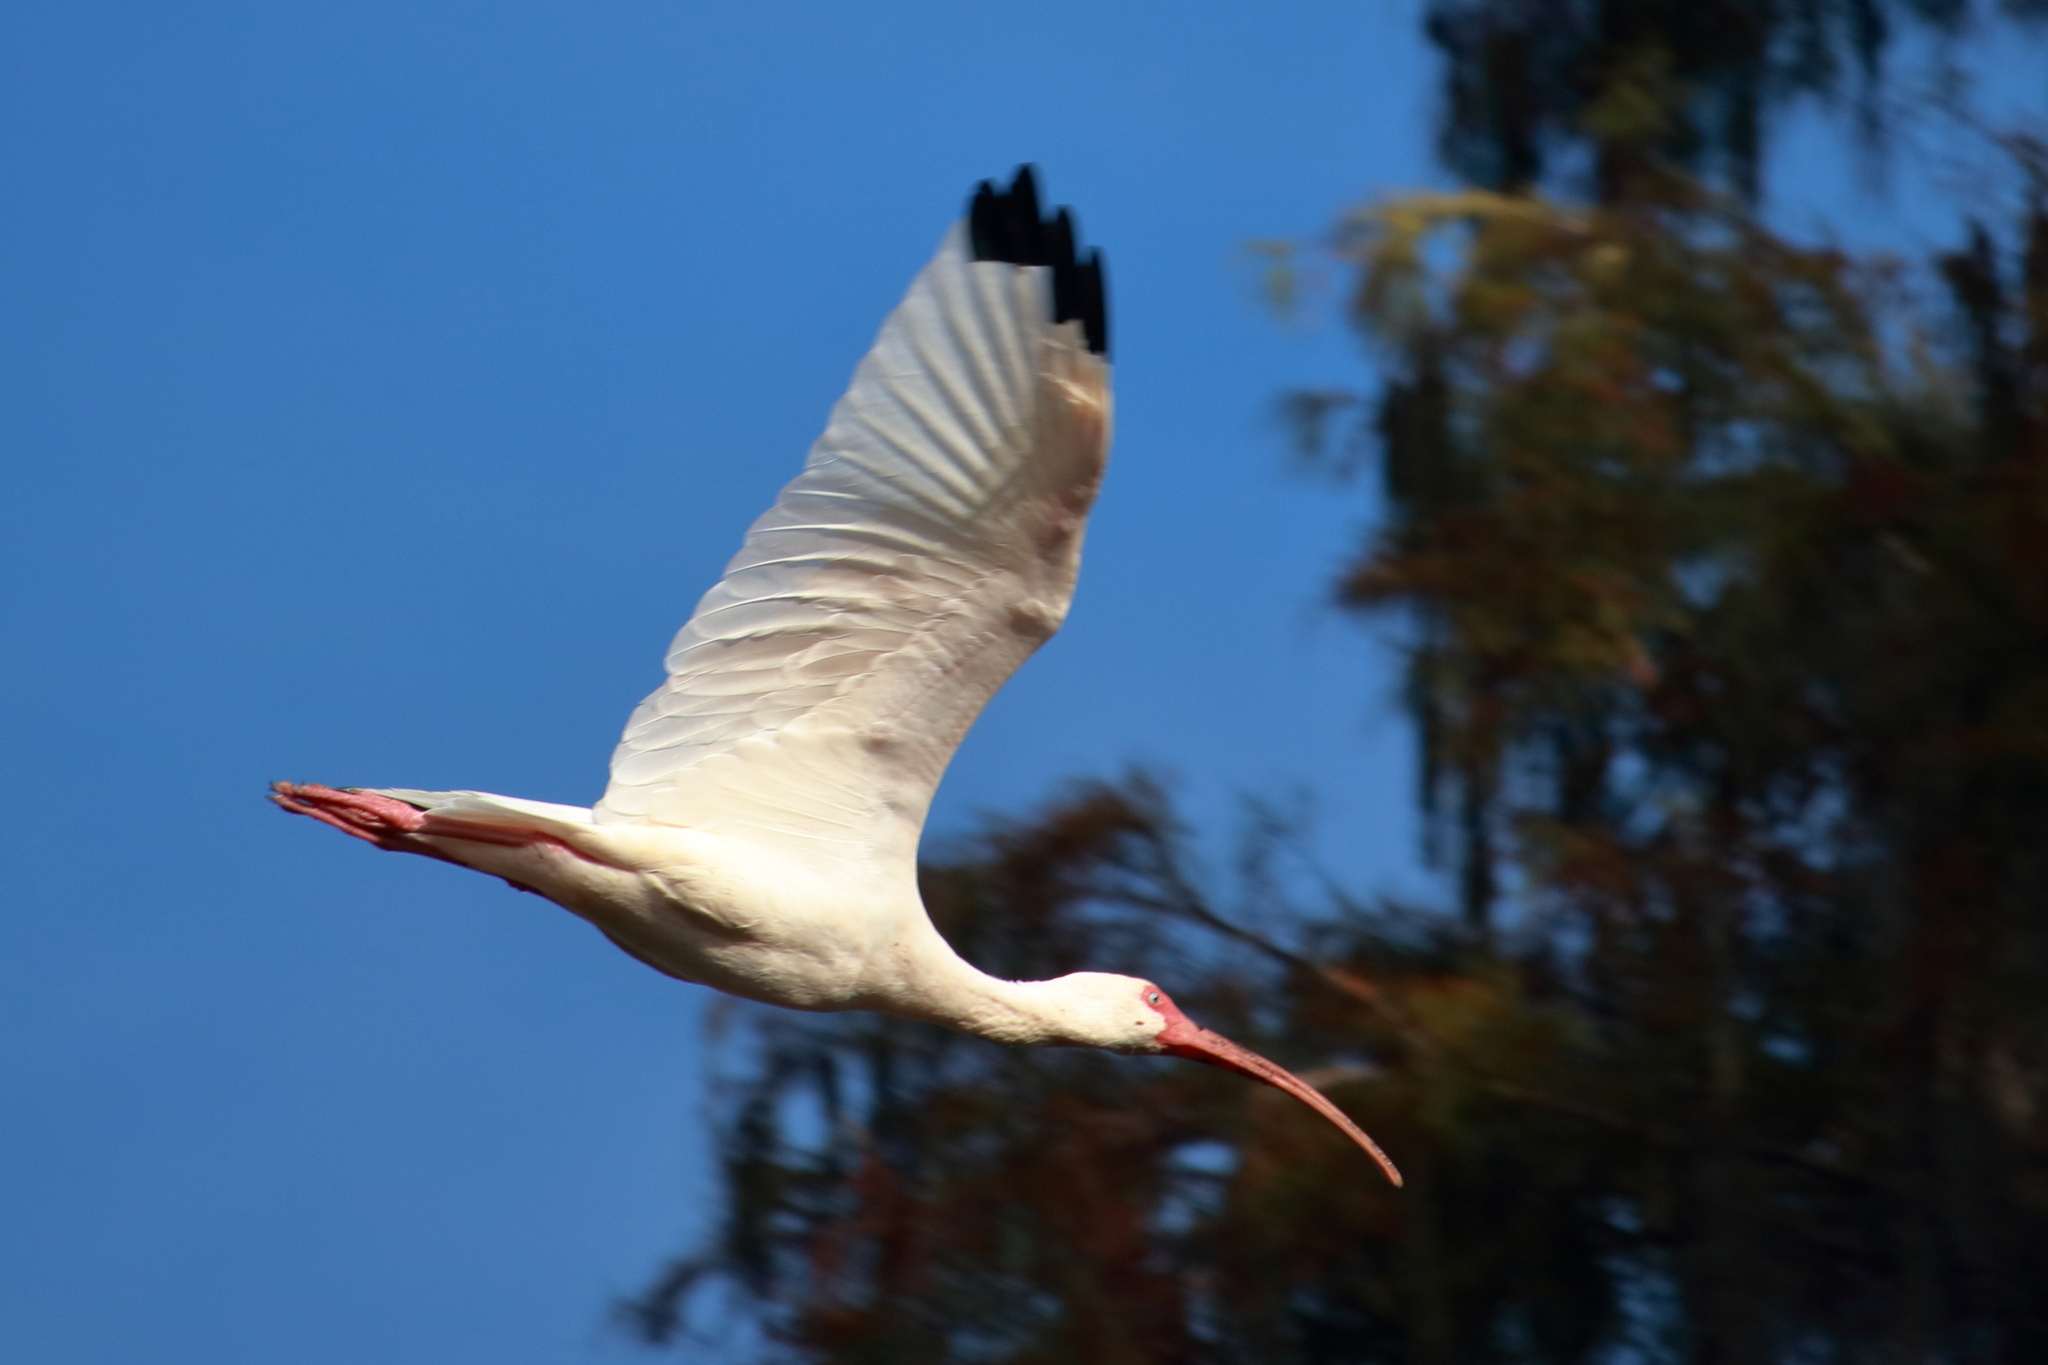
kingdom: Animalia
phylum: Chordata
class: Aves
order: Pelecaniformes
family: Threskiornithidae
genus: Eudocimus
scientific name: Eudocimus albus
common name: White ibis
